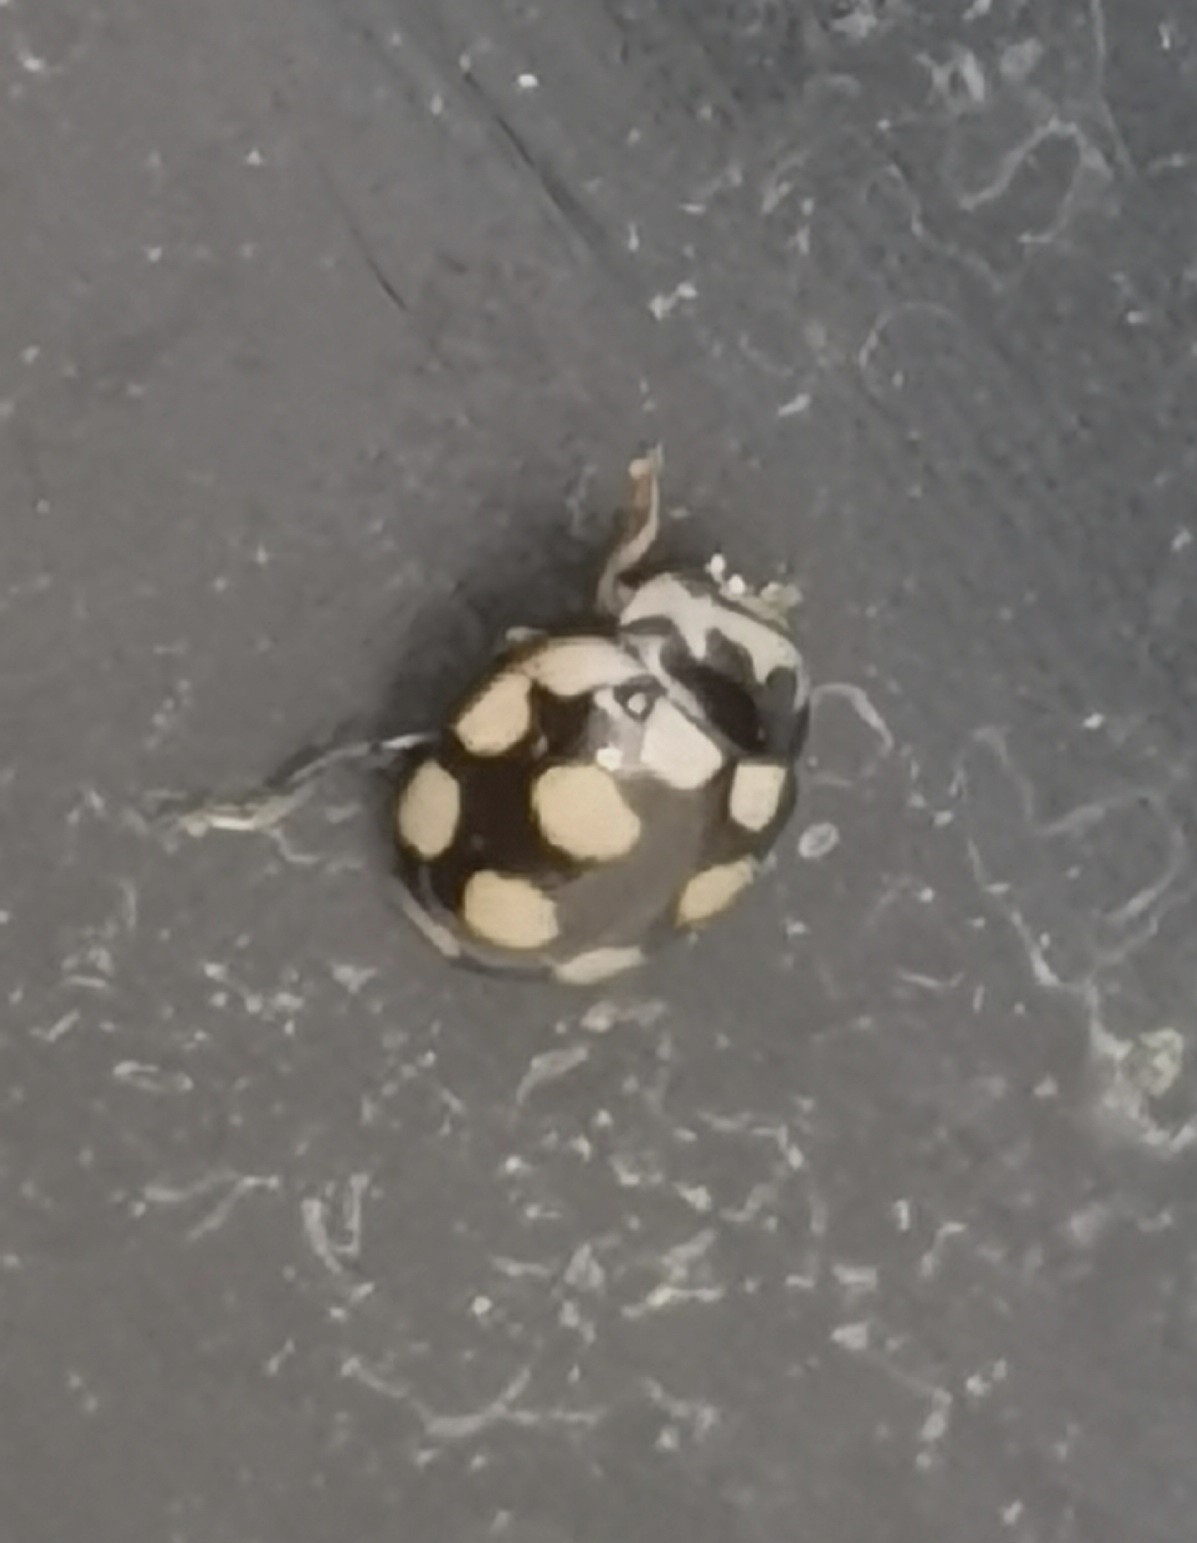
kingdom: Animalia
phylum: Arthropoda
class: Insecta
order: Coleoptera
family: Coccinellidae
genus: Coccinula
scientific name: Coccinula quatuordecimpustulata
